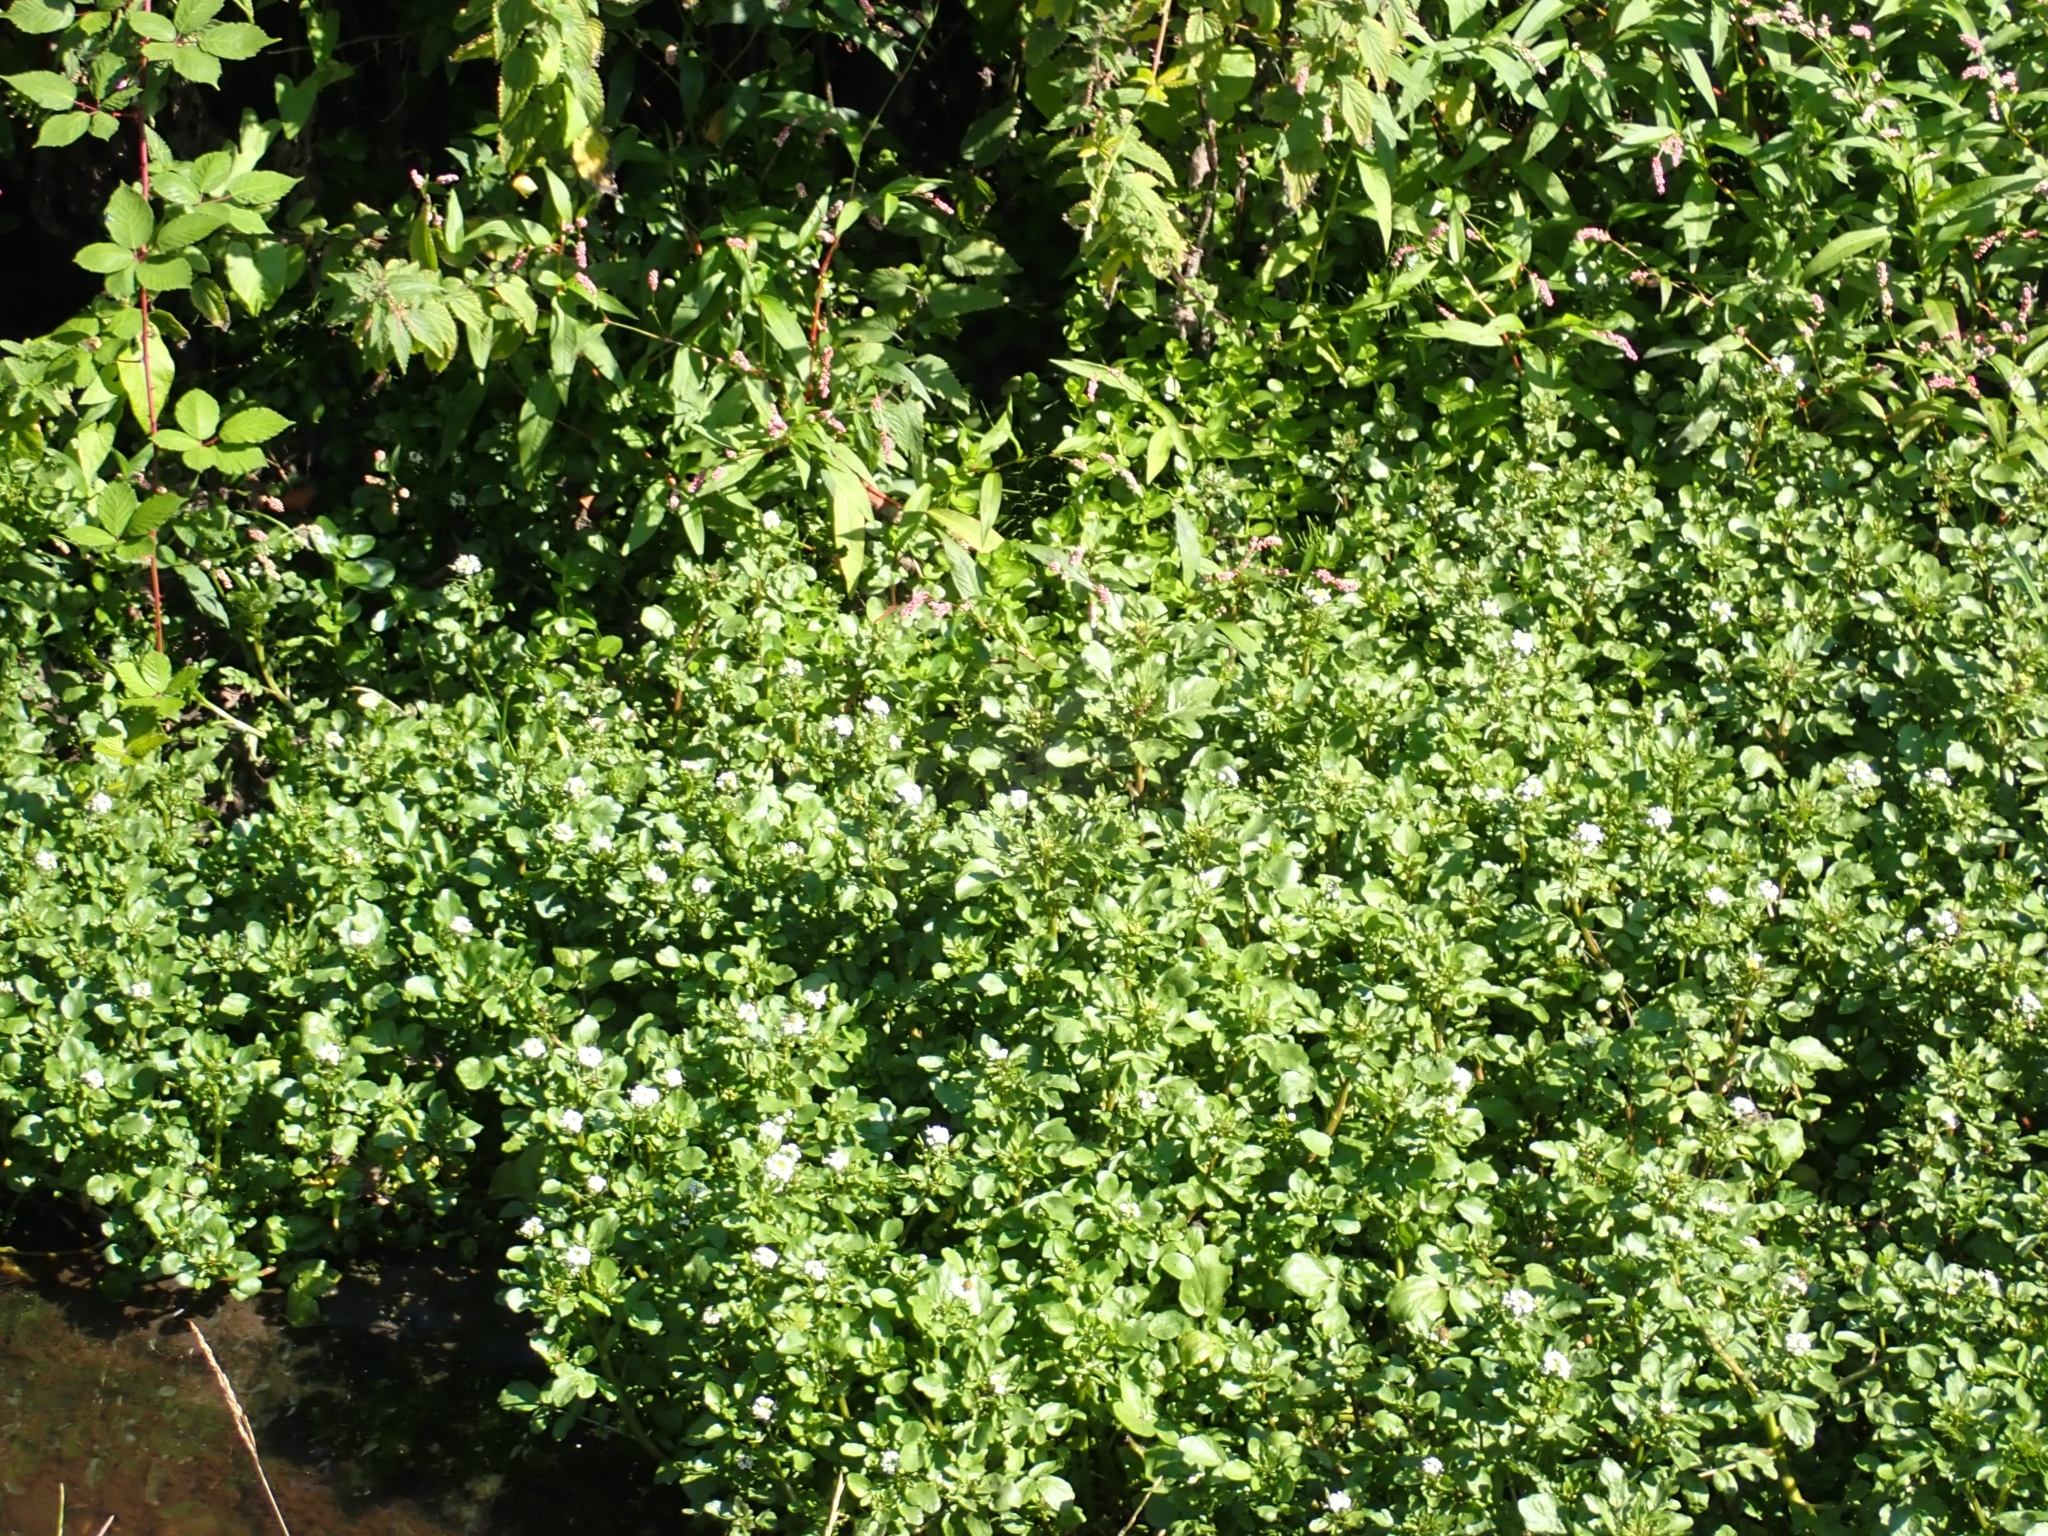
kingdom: Plantae
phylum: Tracheophyta
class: Magnoliopsida
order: Brassicales
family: Brassicaceae
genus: Nasturtium
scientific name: Nasturtium officinale
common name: Watercress
